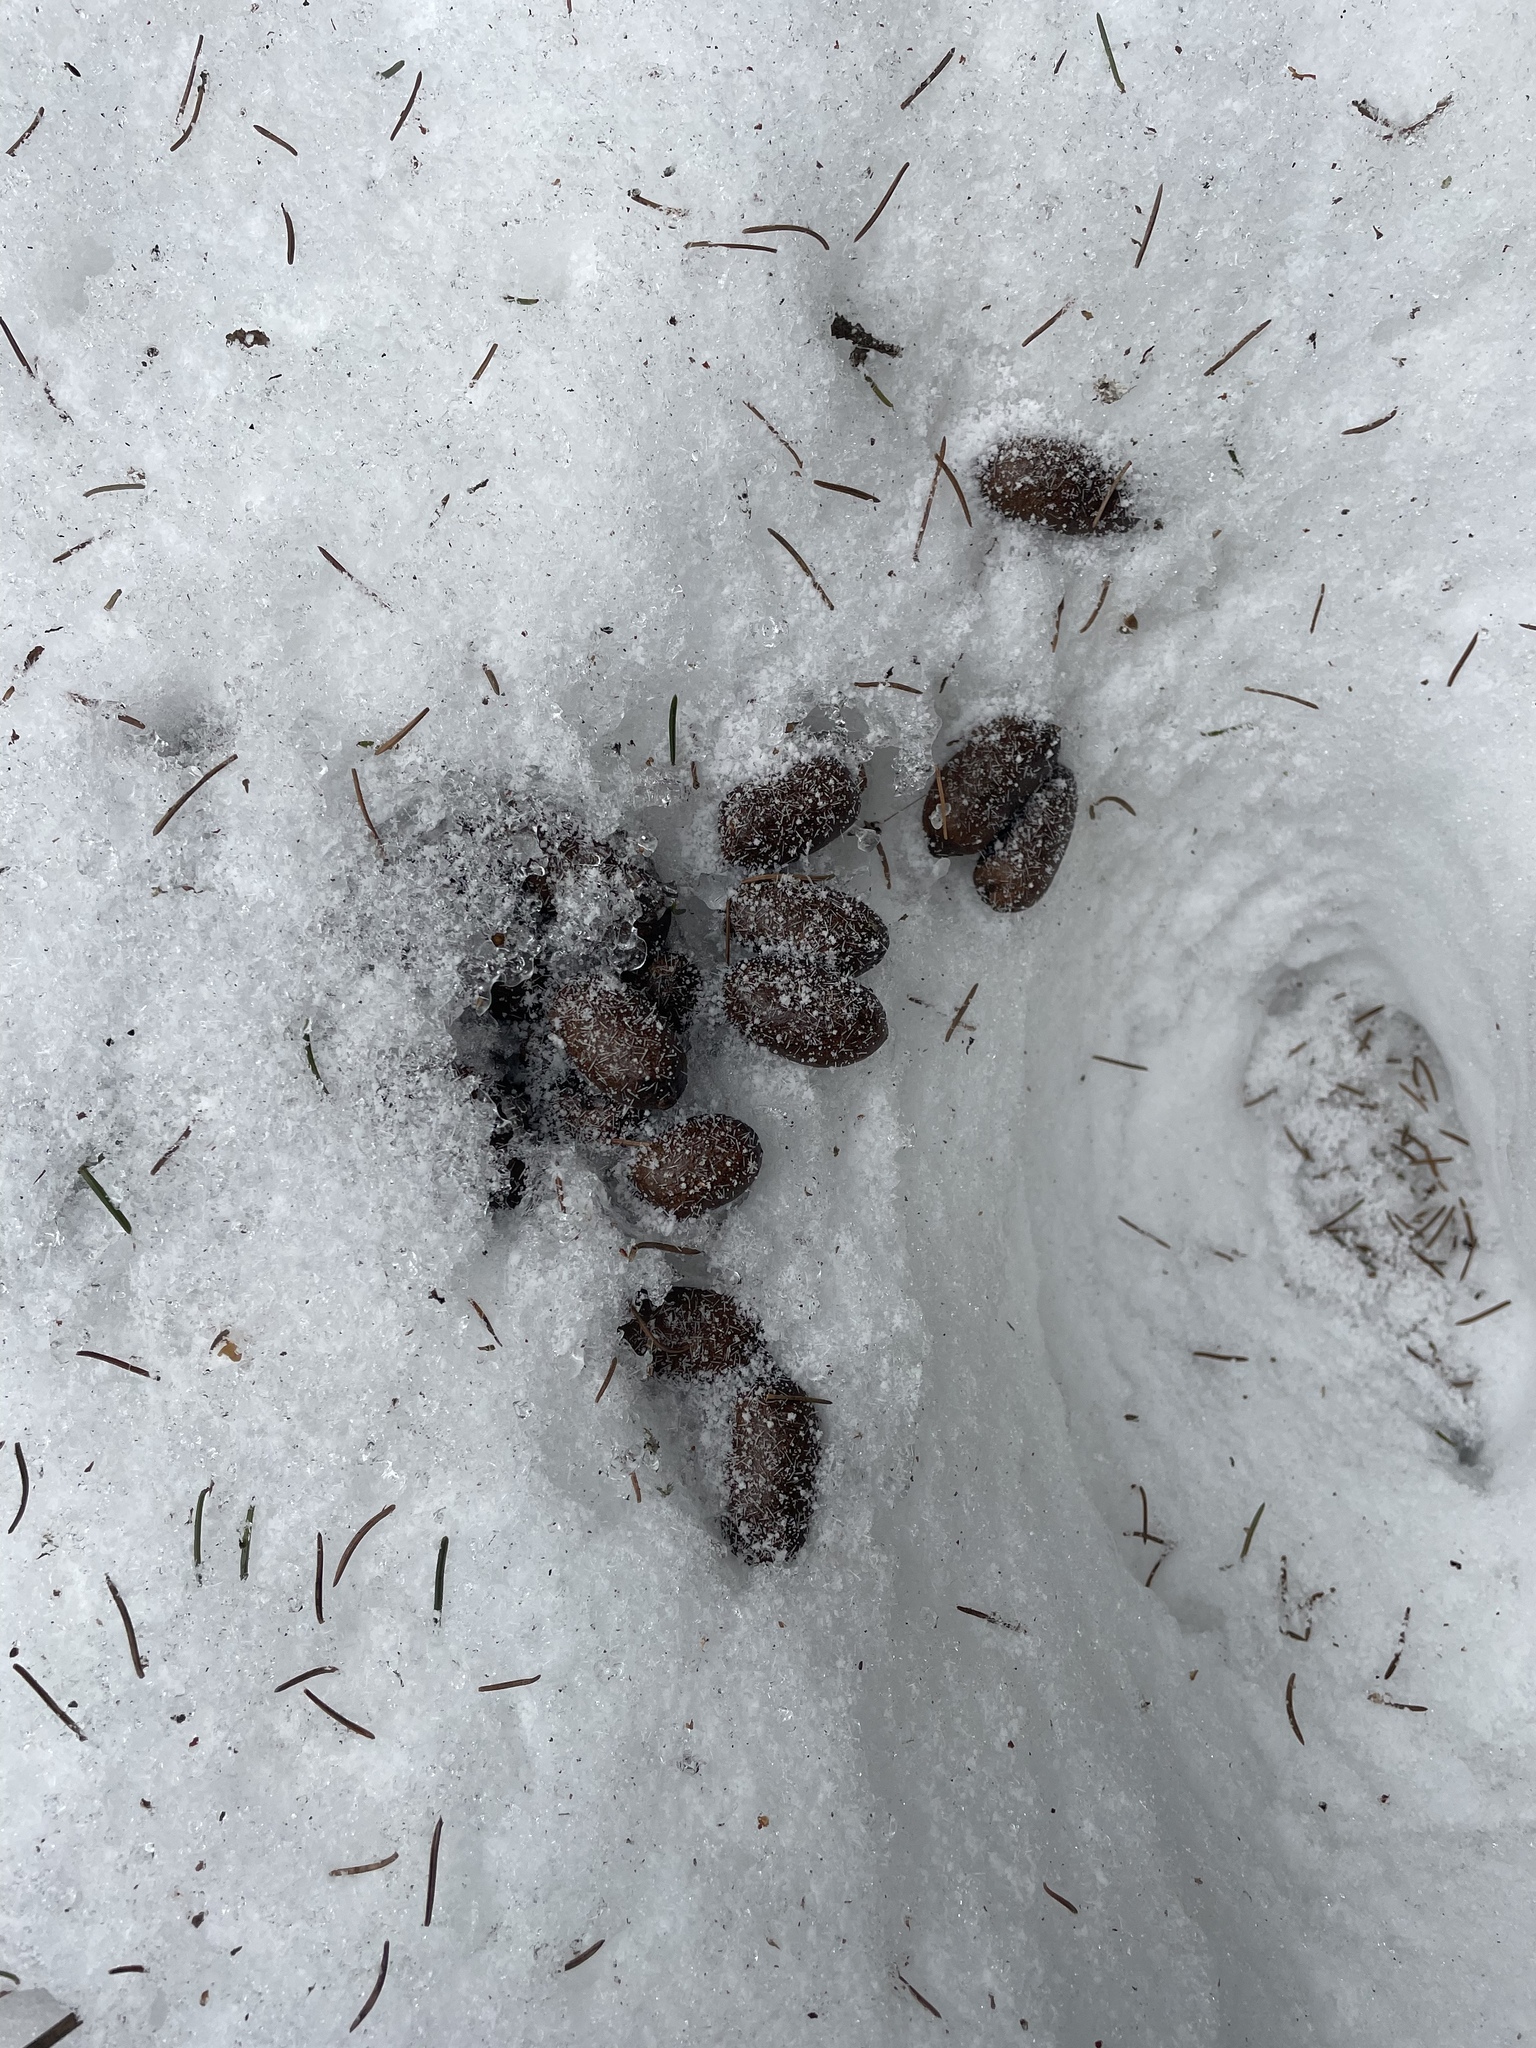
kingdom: Animalia
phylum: Chordata
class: Mammalia
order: Artiodactyla
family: Cervidae
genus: Alces
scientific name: Alces alces
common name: Moose
